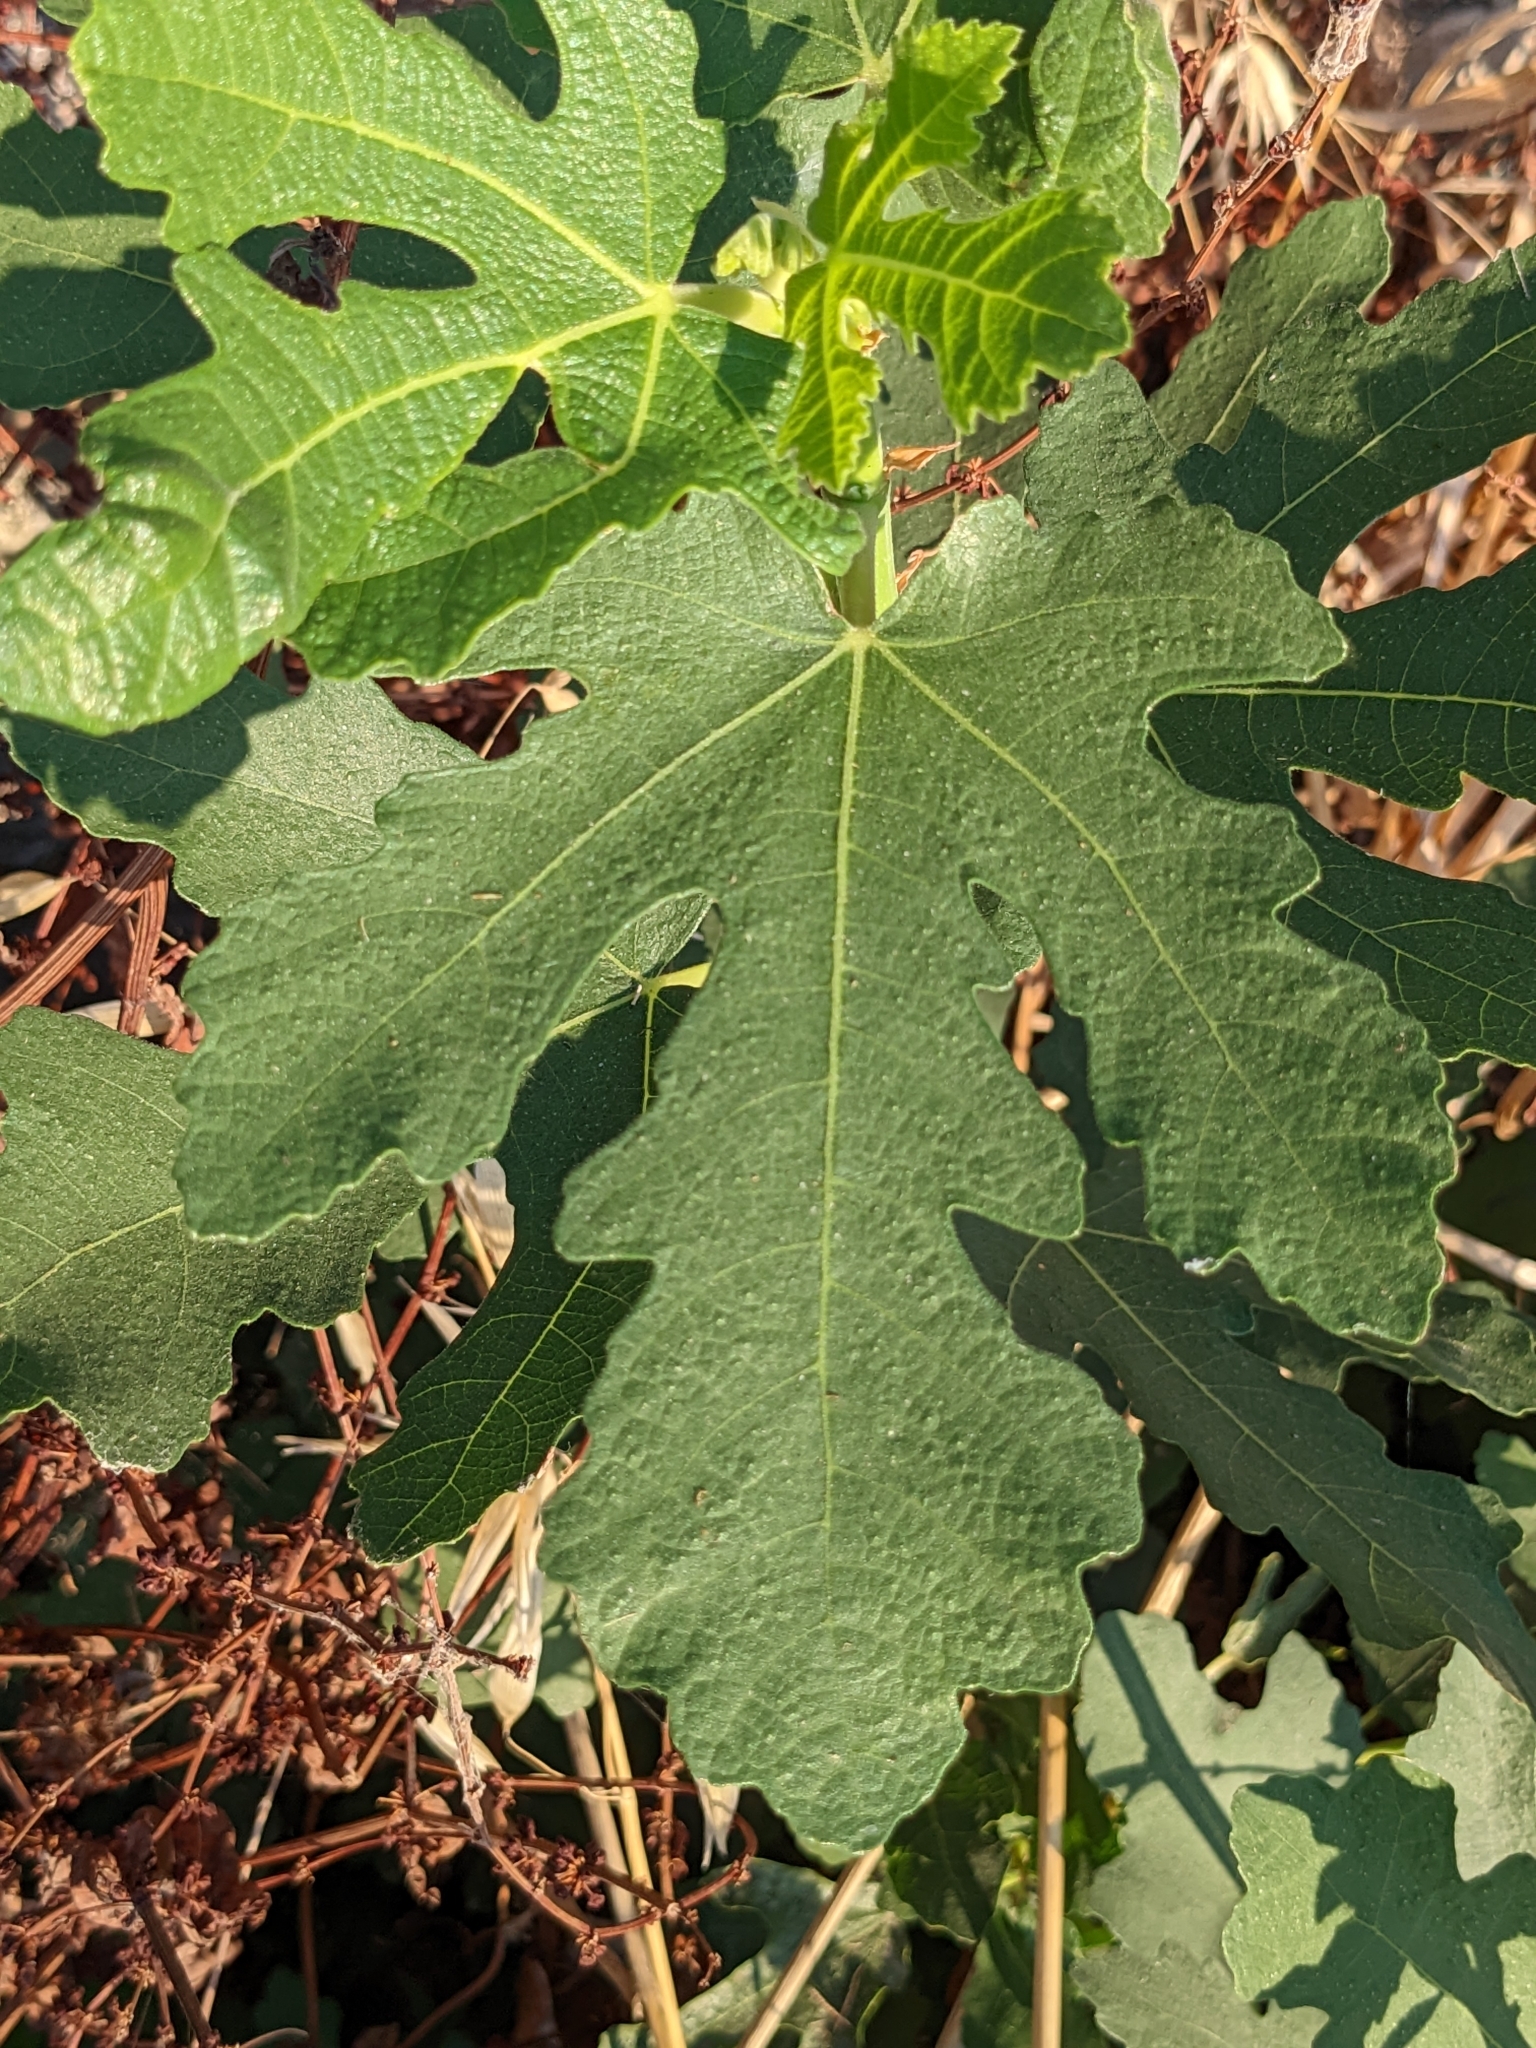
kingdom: Plantae
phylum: Tracheophyta
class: Magnoliopsida
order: Rosales
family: Moraceae
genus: Ficus
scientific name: Ficus carica
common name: Fig
